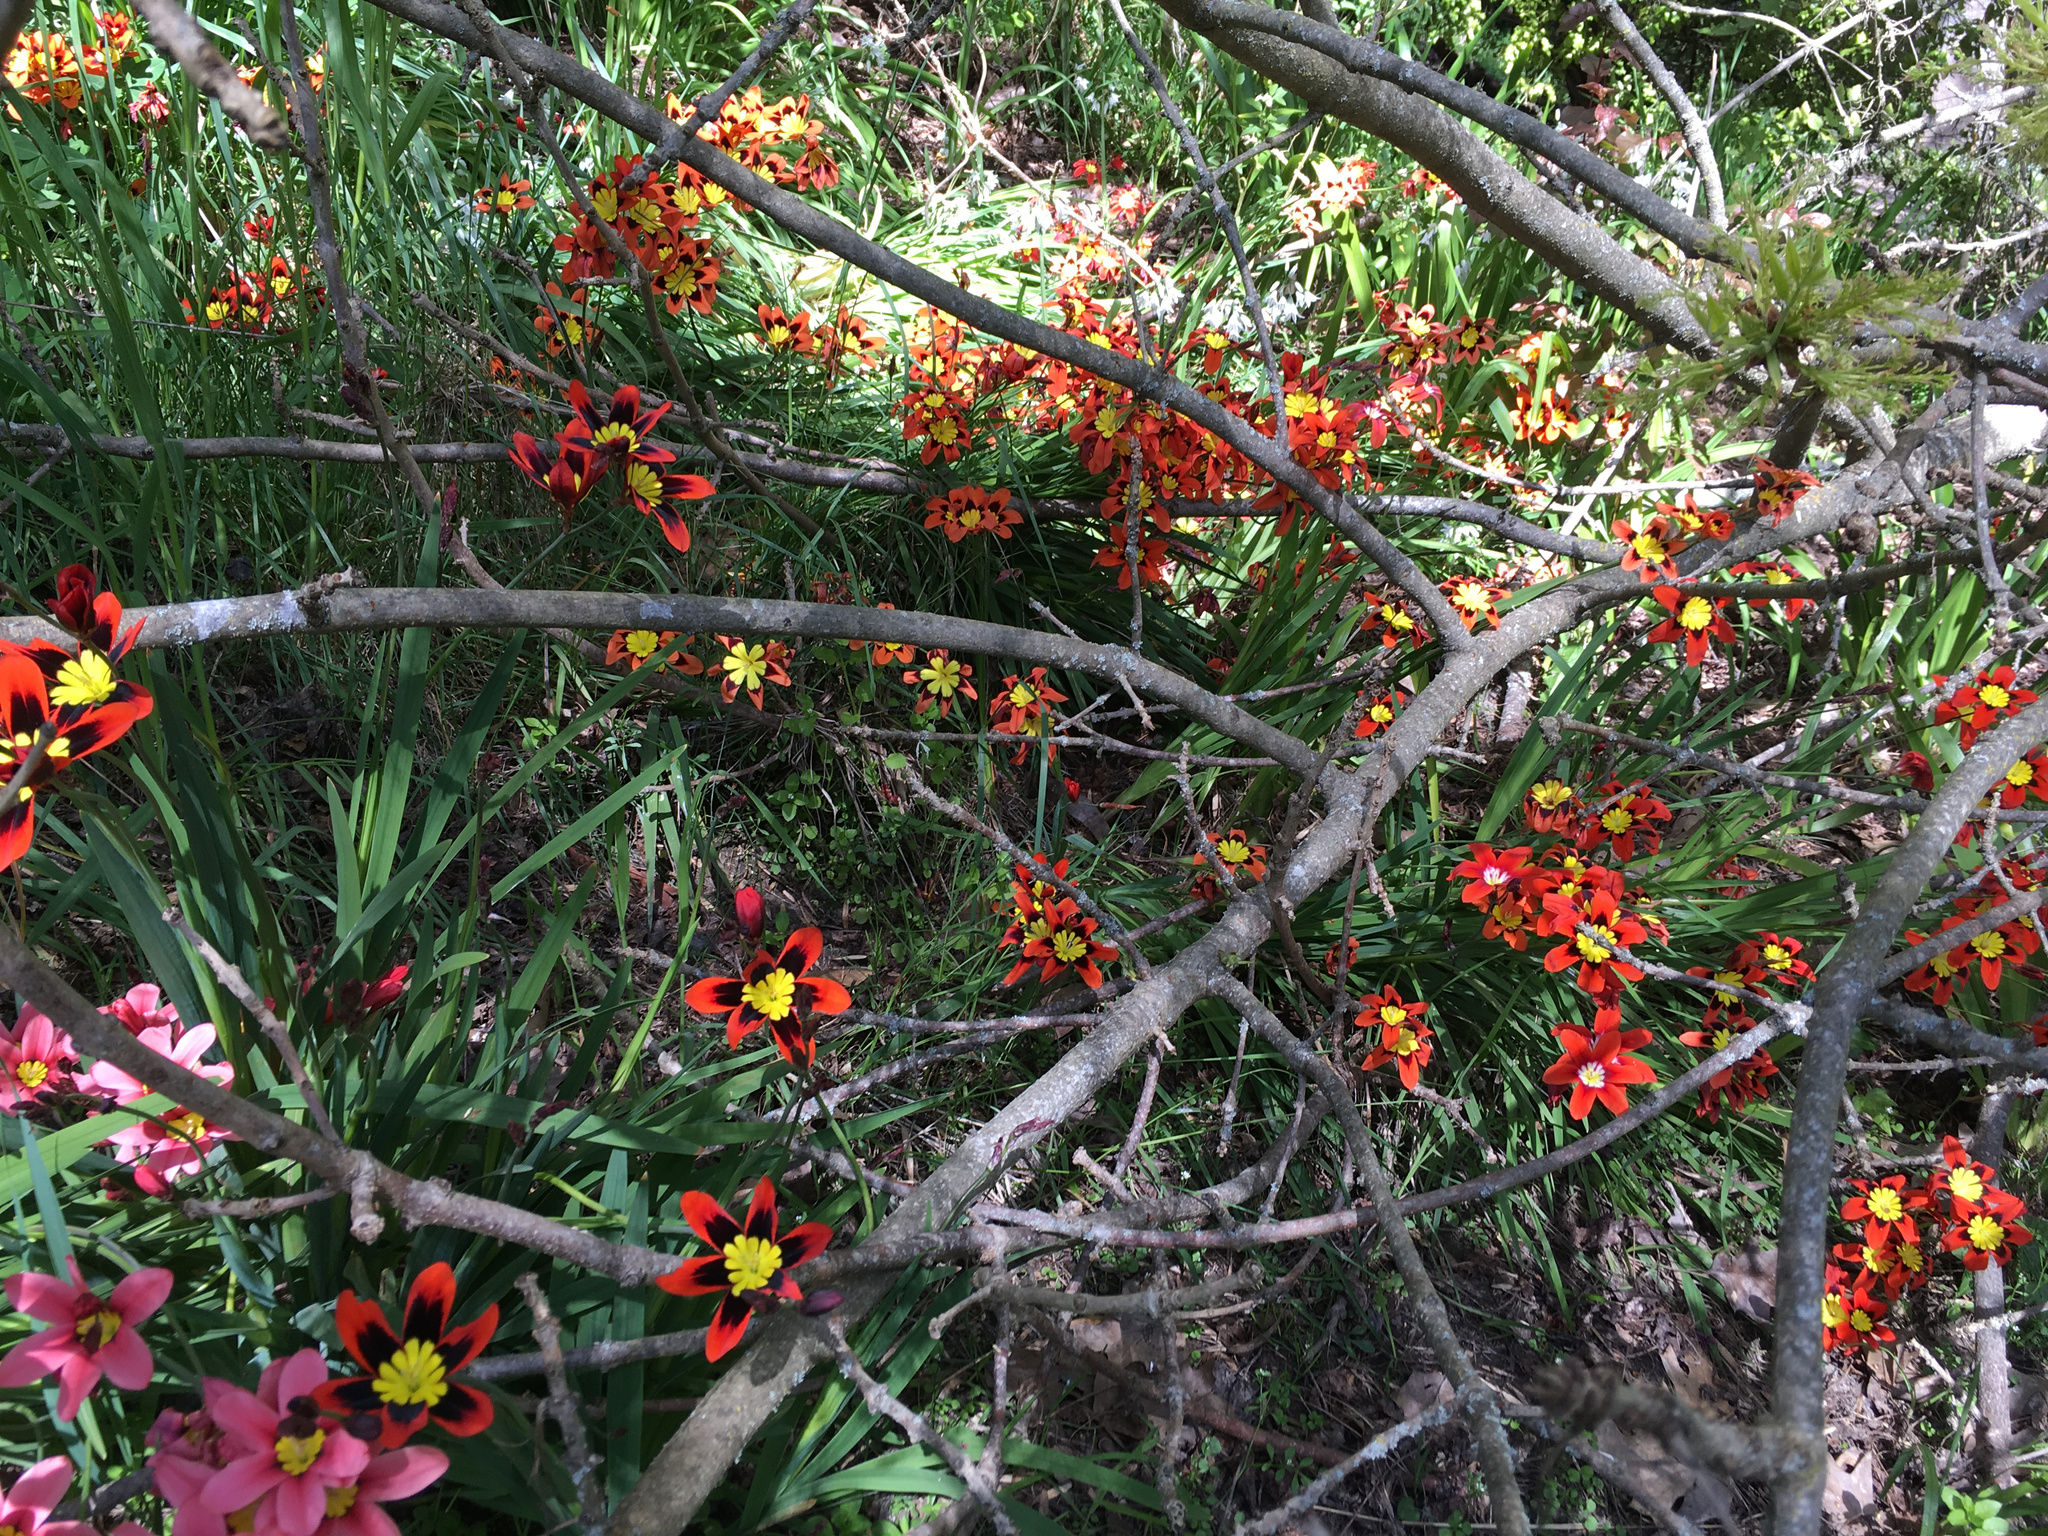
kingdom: Plantae
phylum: Tracheophyta
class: Liliopsida
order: Asparagales
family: Iridaceae
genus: Sparaxis
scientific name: Sparaxis tricolor
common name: Wandflower
